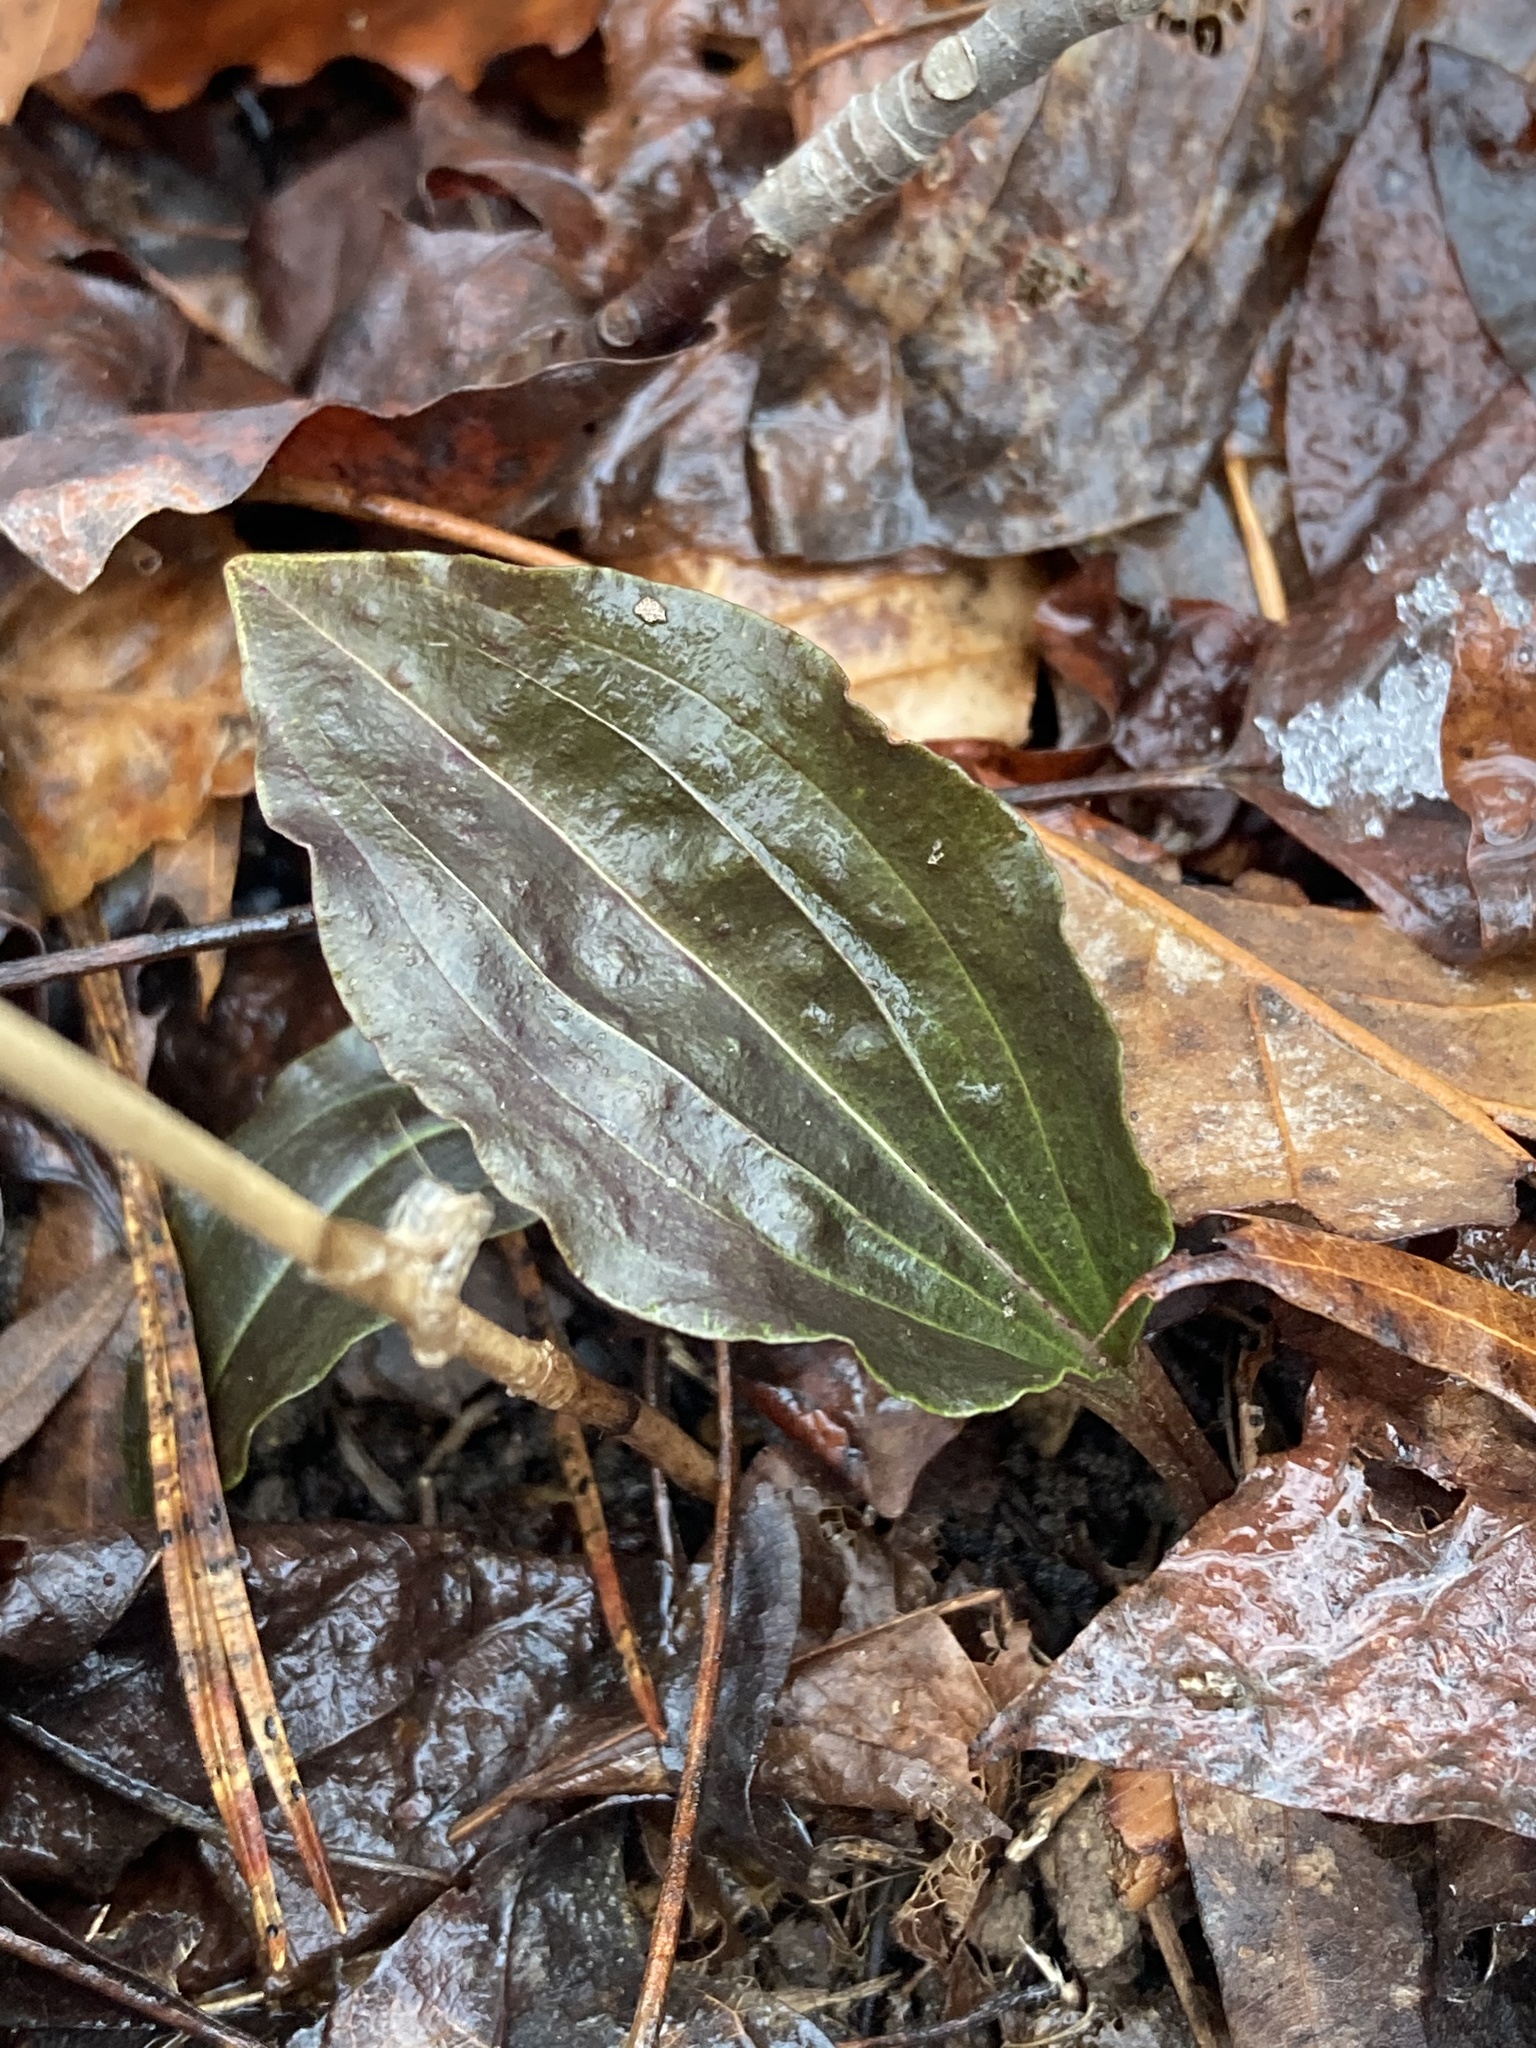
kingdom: Plantae
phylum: Tracheophyta
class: Liliopsida
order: Asparagales
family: Orchidaceae
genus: Tipularia
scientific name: Tipularia discolor
